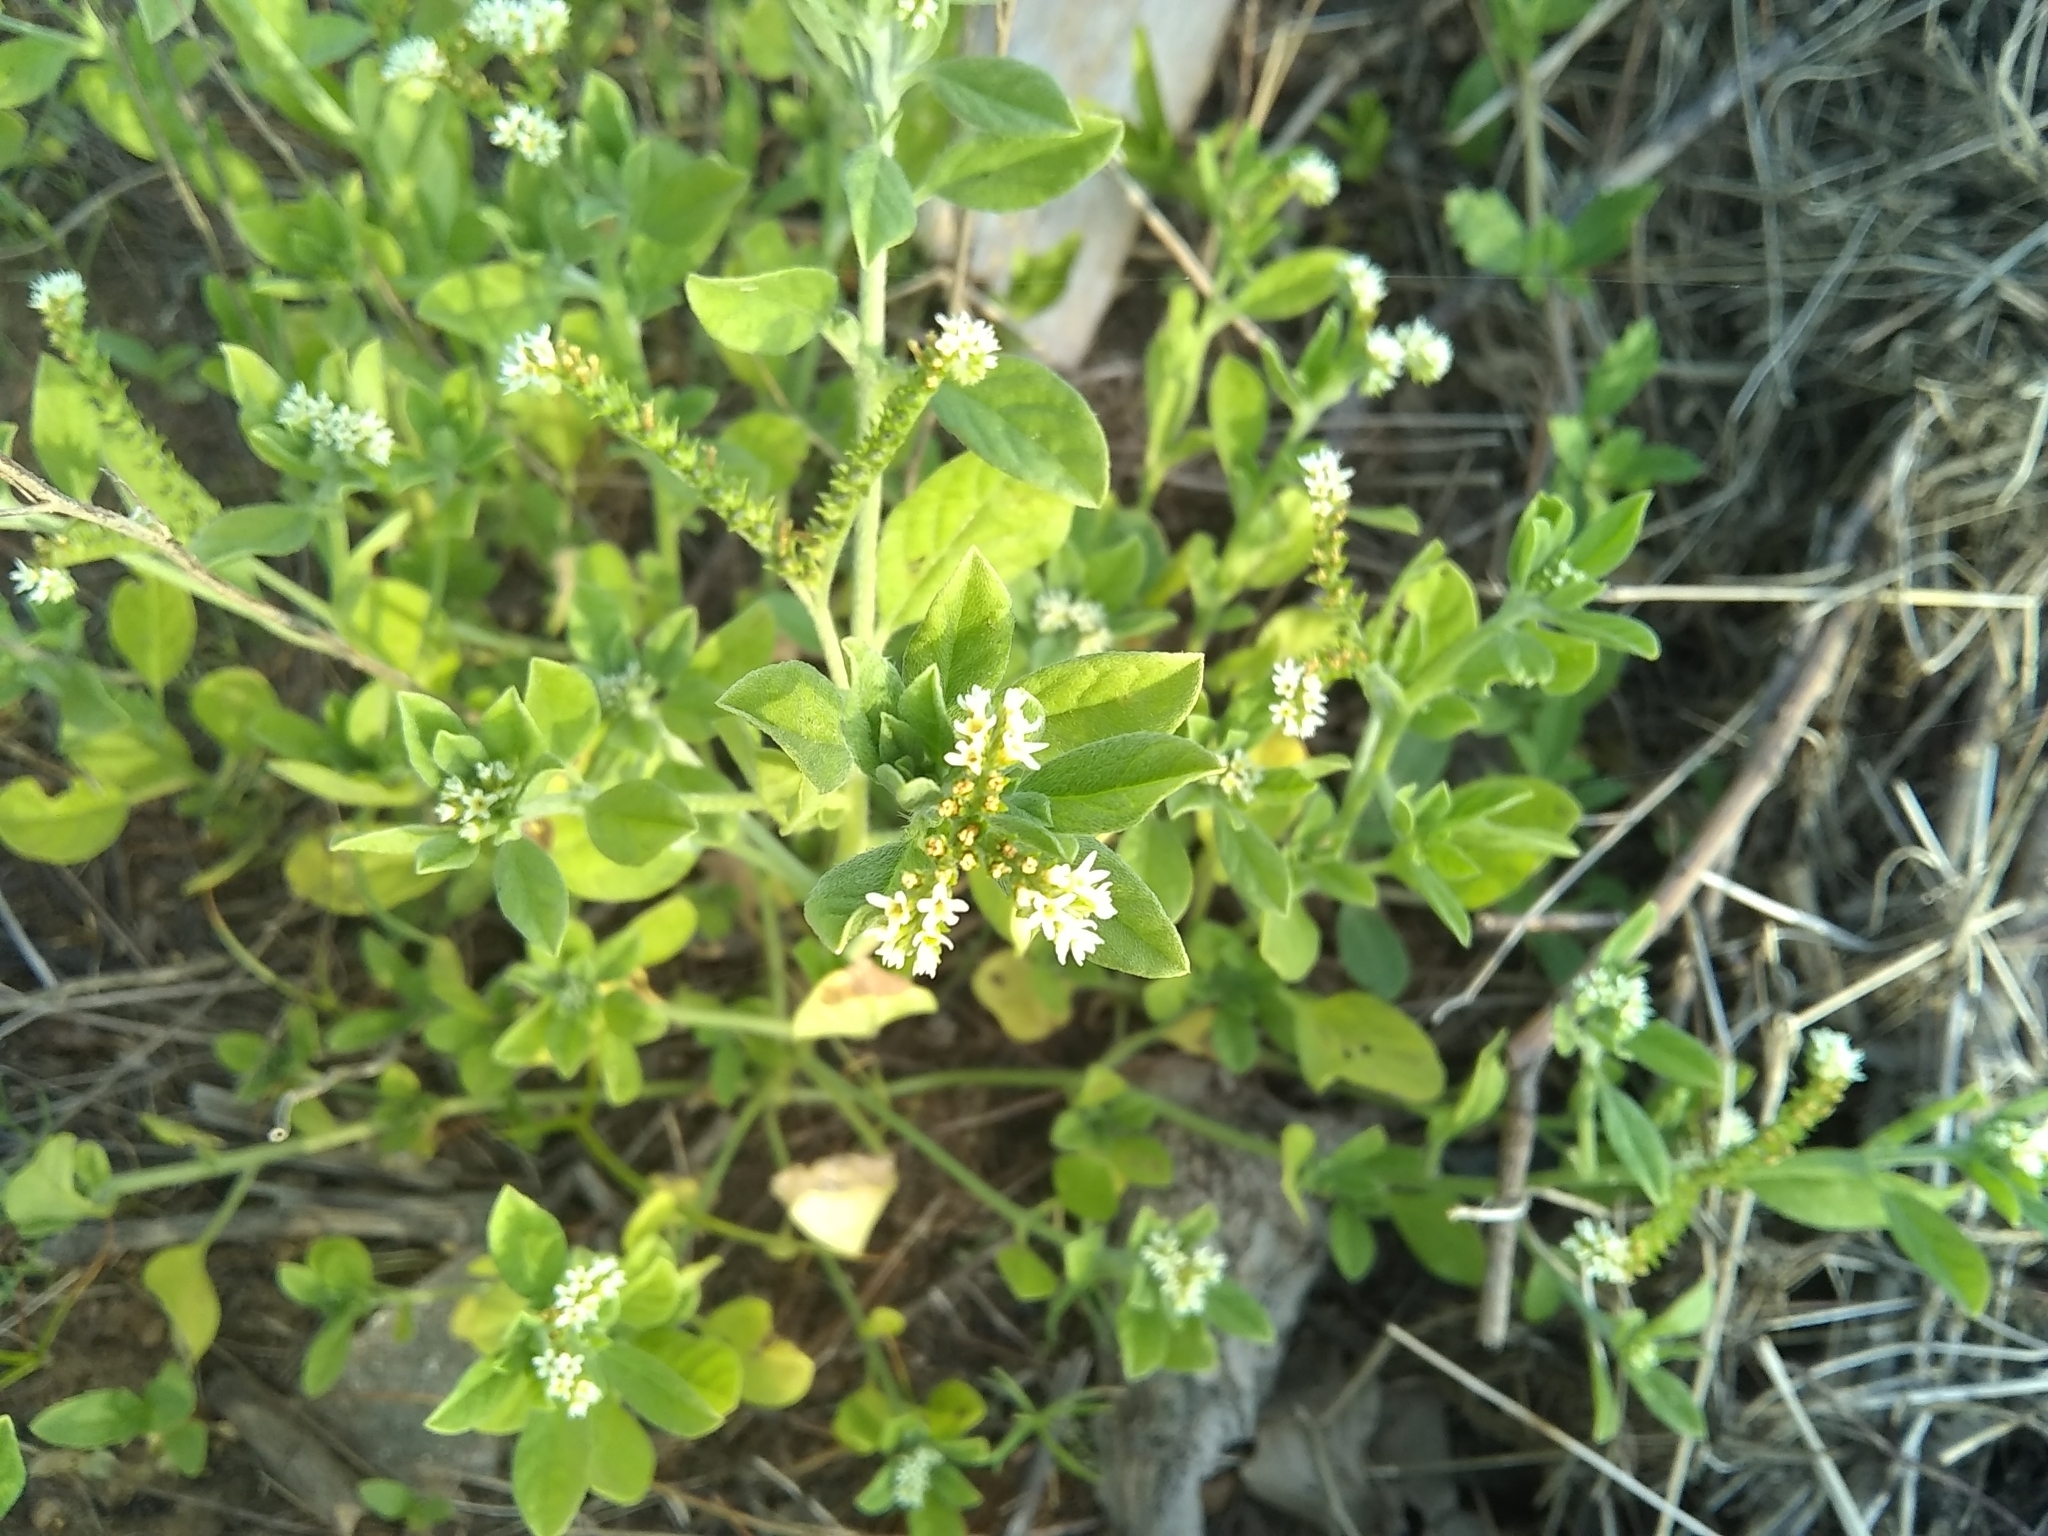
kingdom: Plantae
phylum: Tracheophyta
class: Magnoliopsida
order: Gentianales
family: Rubiaceae
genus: Diodia
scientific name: Diodia virginiana
